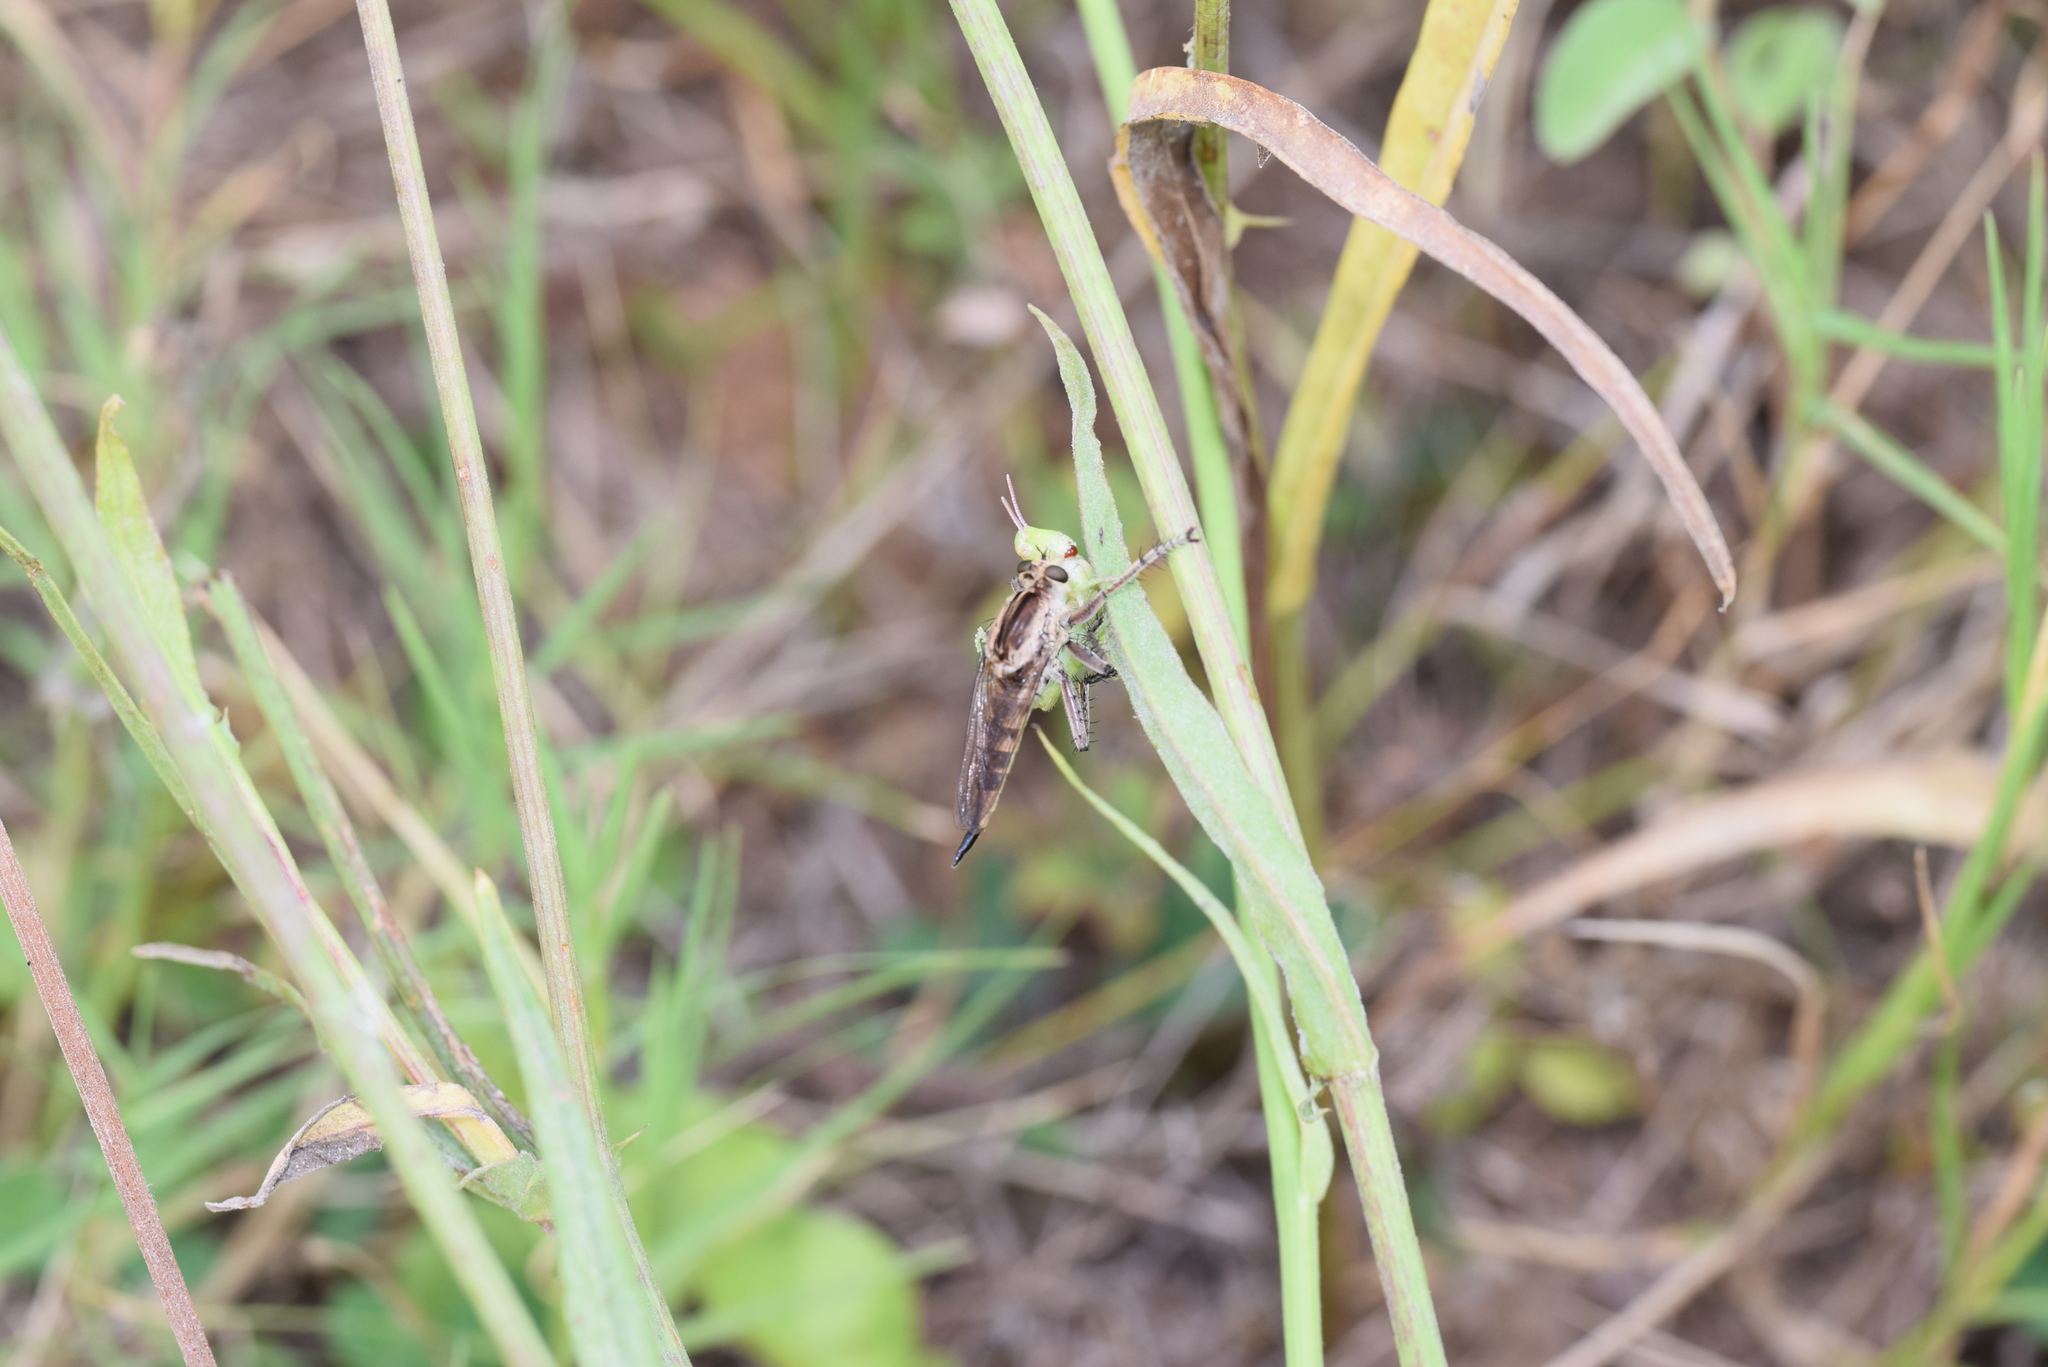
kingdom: Animalia
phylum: Arthropoda
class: Insecta
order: Diptera
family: Asilidae
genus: Triorla
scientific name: Triorla interrupta
